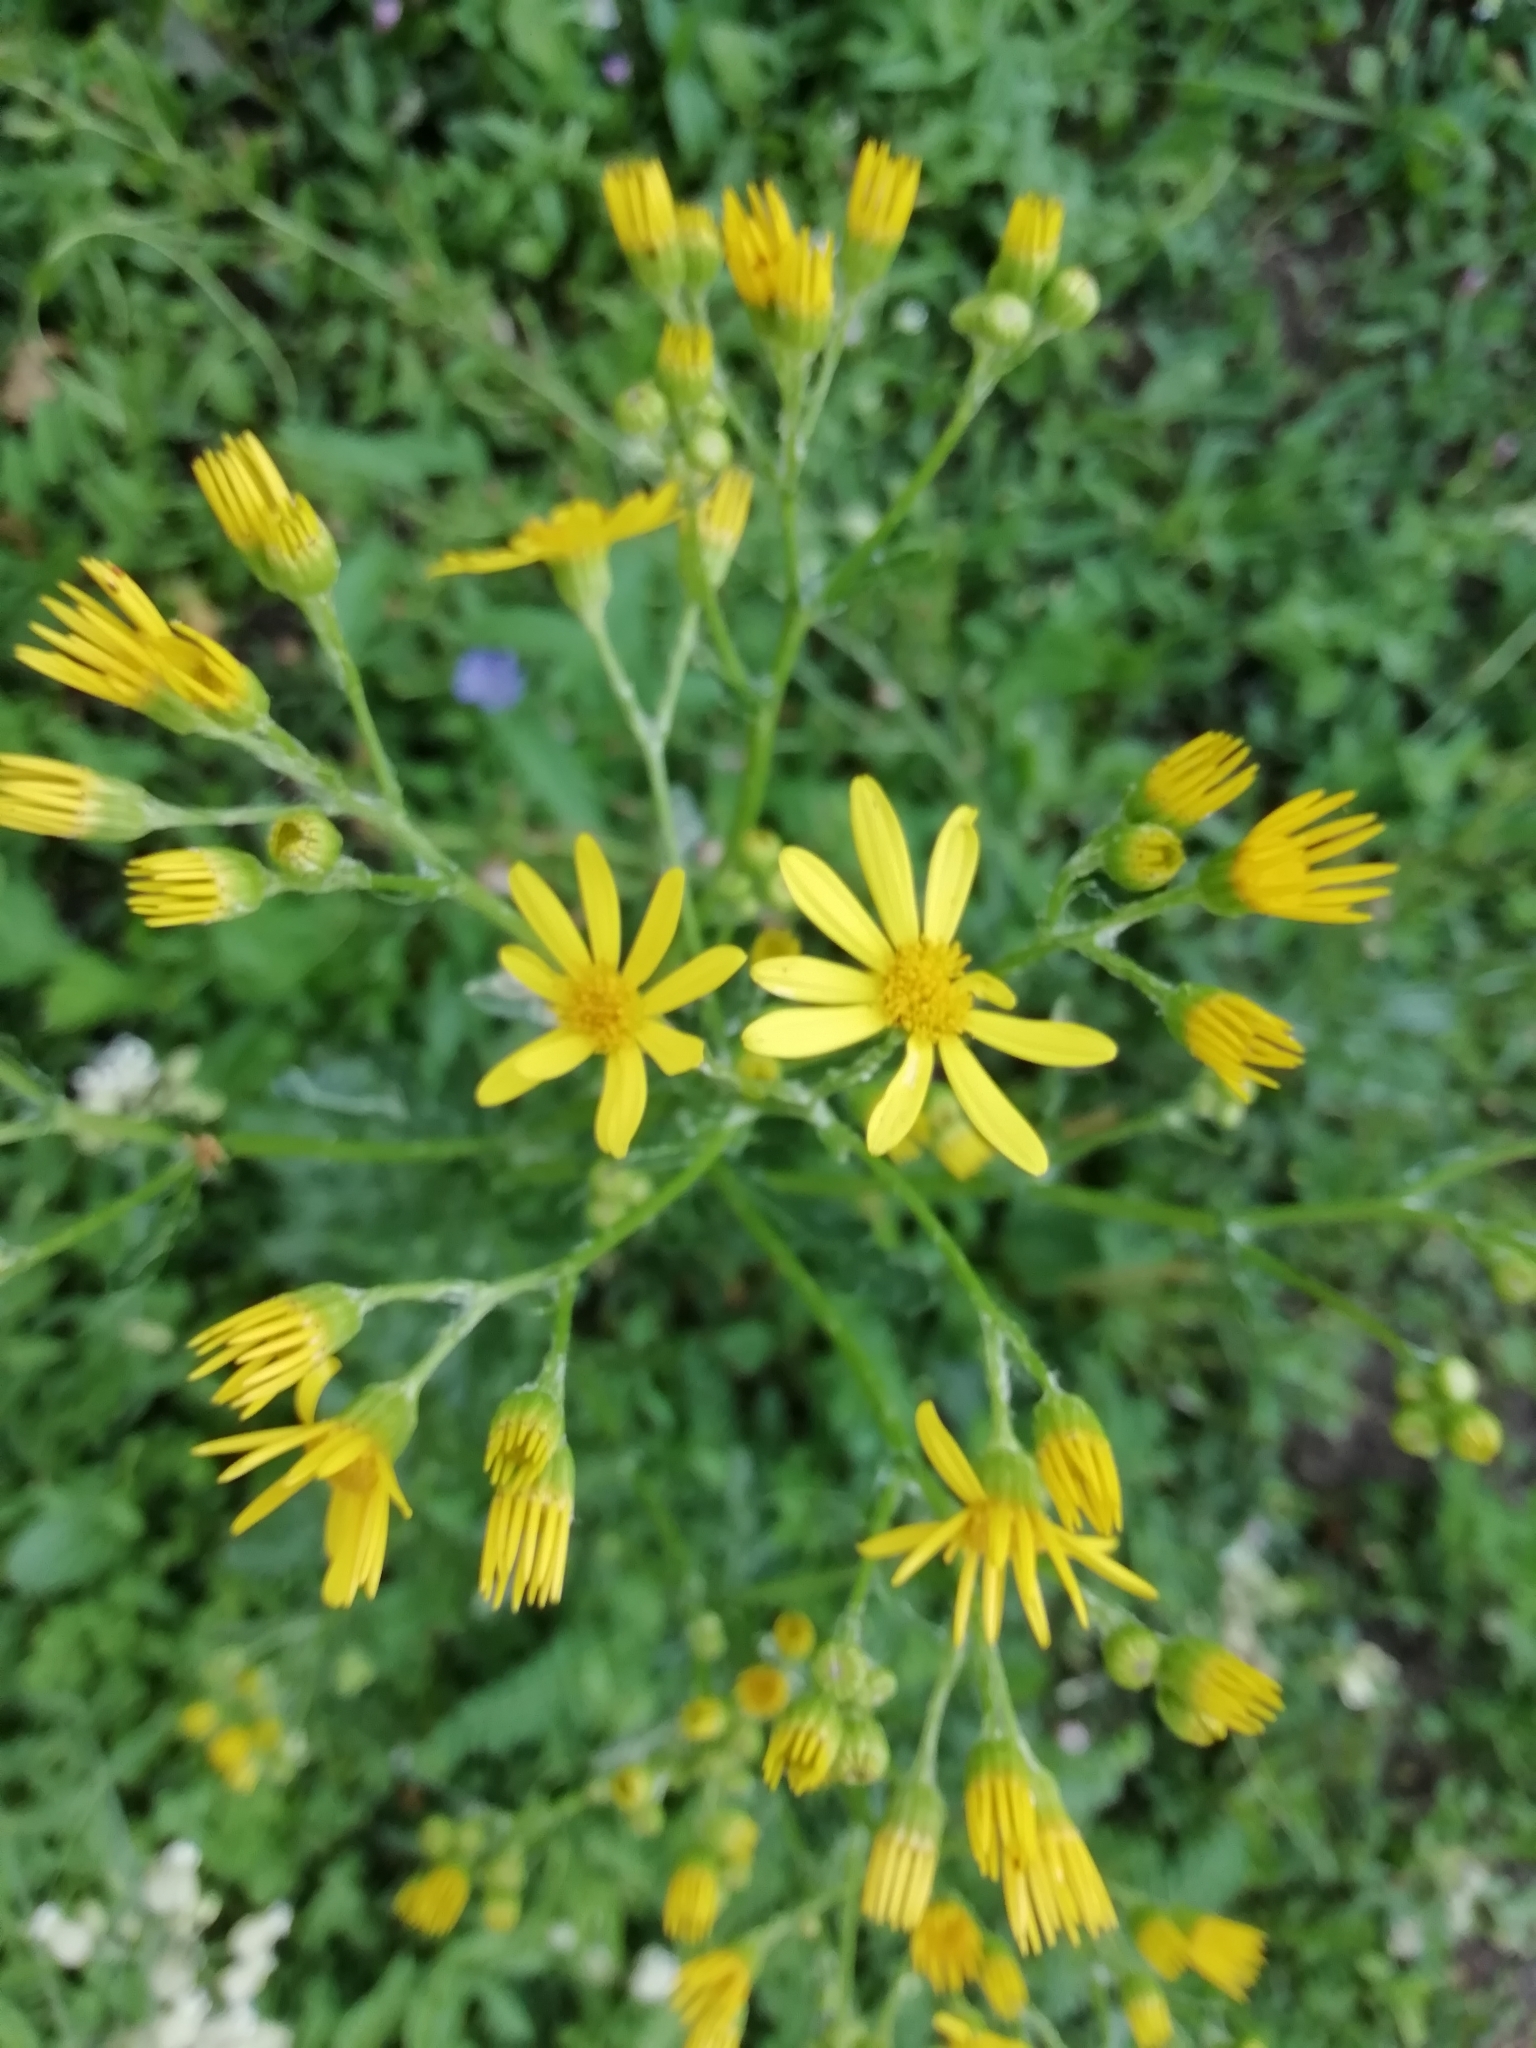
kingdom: Plantae
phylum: Tracheophyta
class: Magnoliopsida
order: Asterales
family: Asteraceae
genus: Jacobaea
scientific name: Jacobaea vulgaris
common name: Stinking willie
